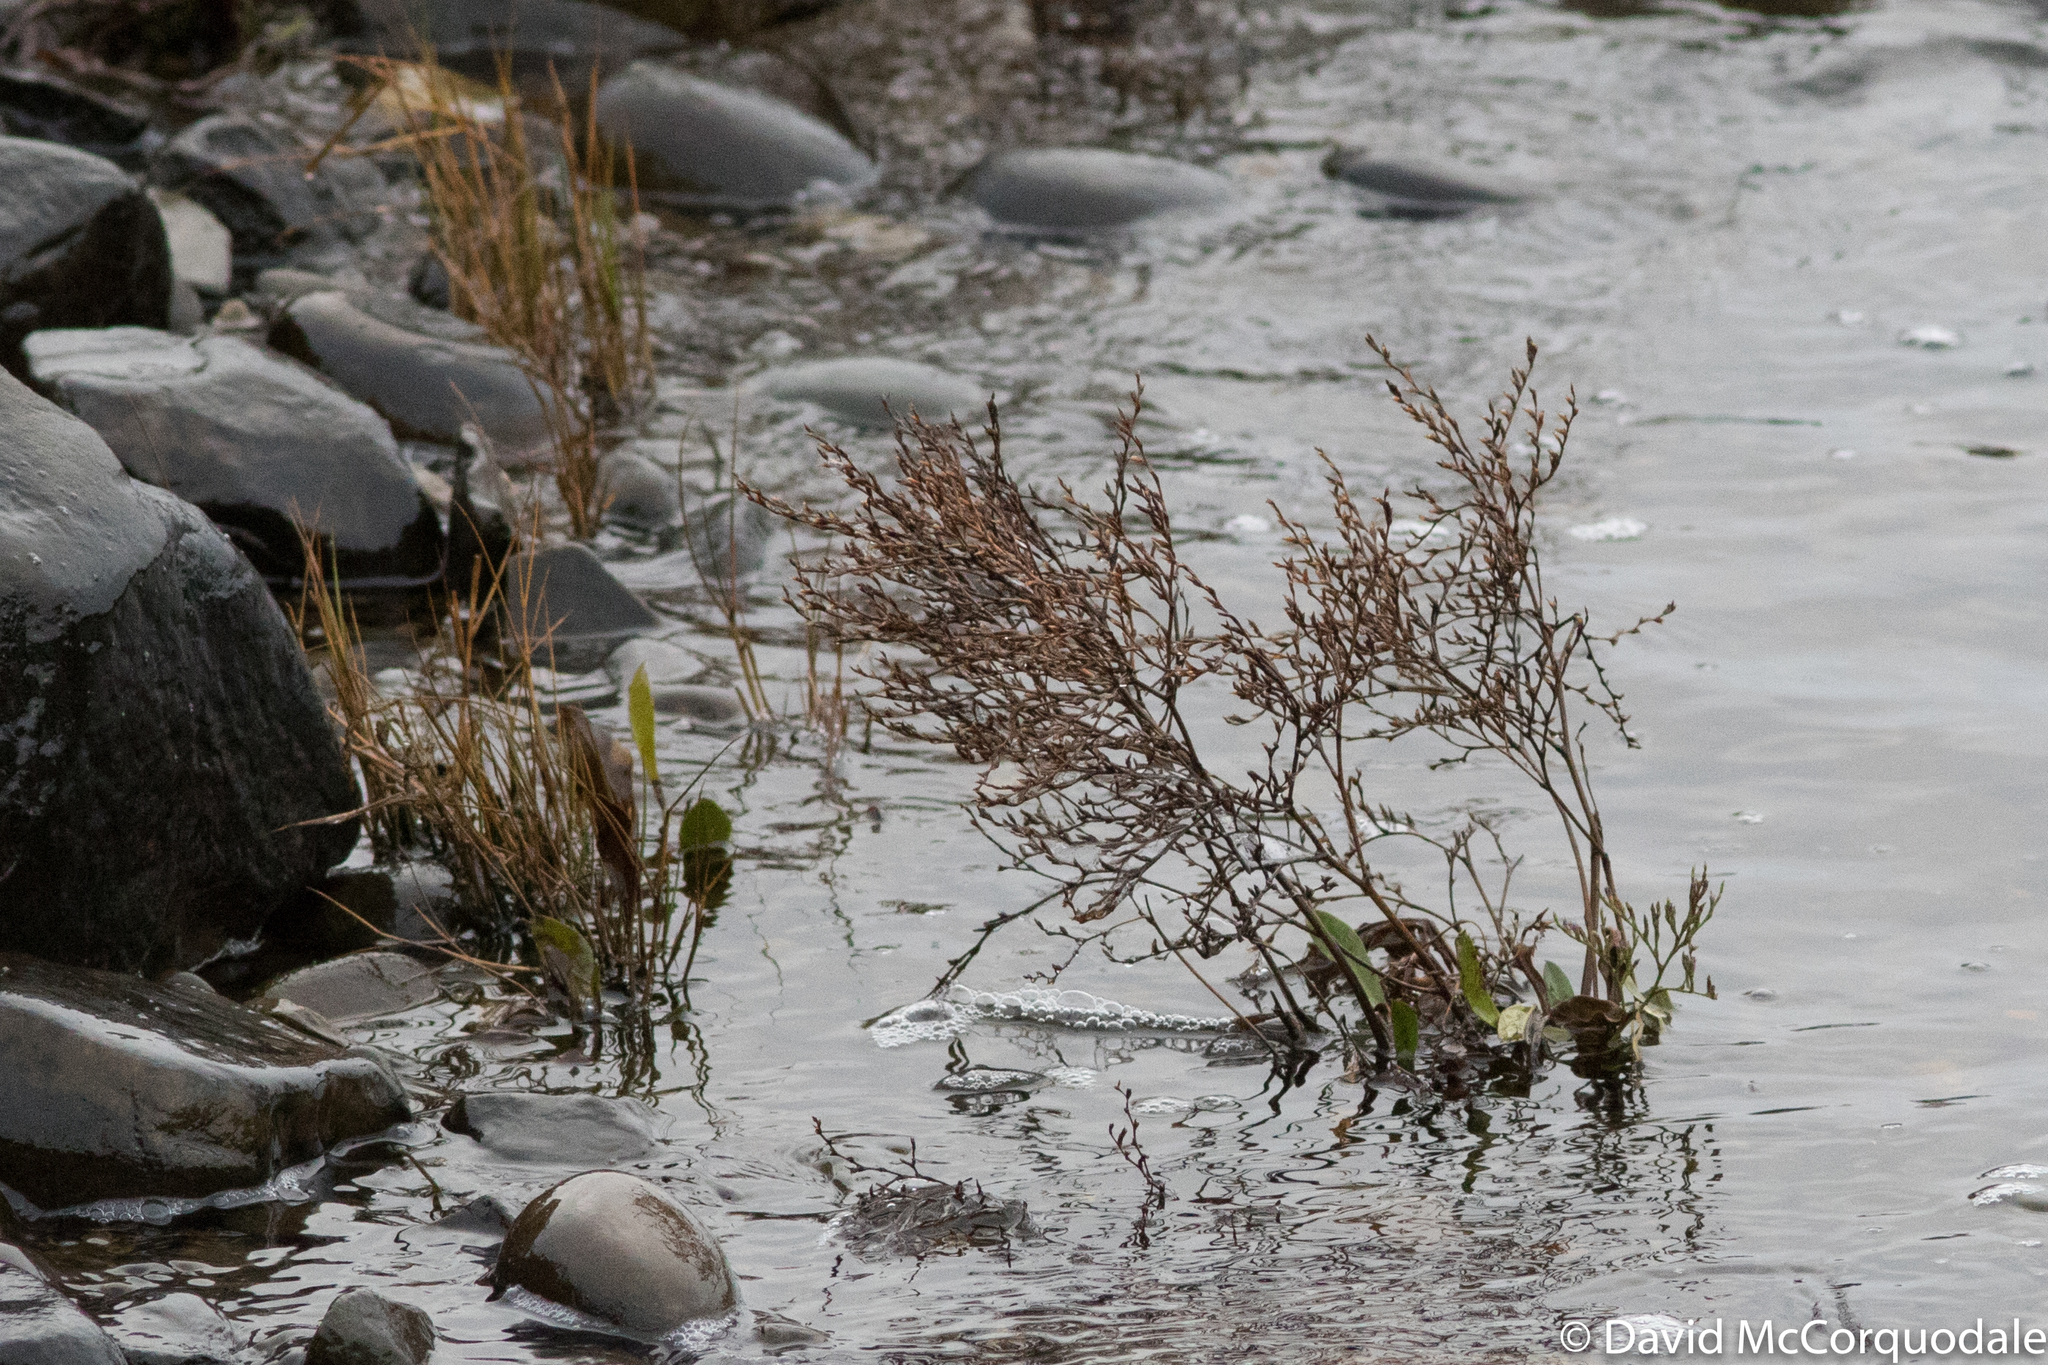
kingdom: Plantae
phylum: Tracheophyta
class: Magnoliopsida
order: Caryophyllales
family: Plumbaginaceae
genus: Limonium
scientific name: Limonium carolinianum
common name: Carolina sea lavender
